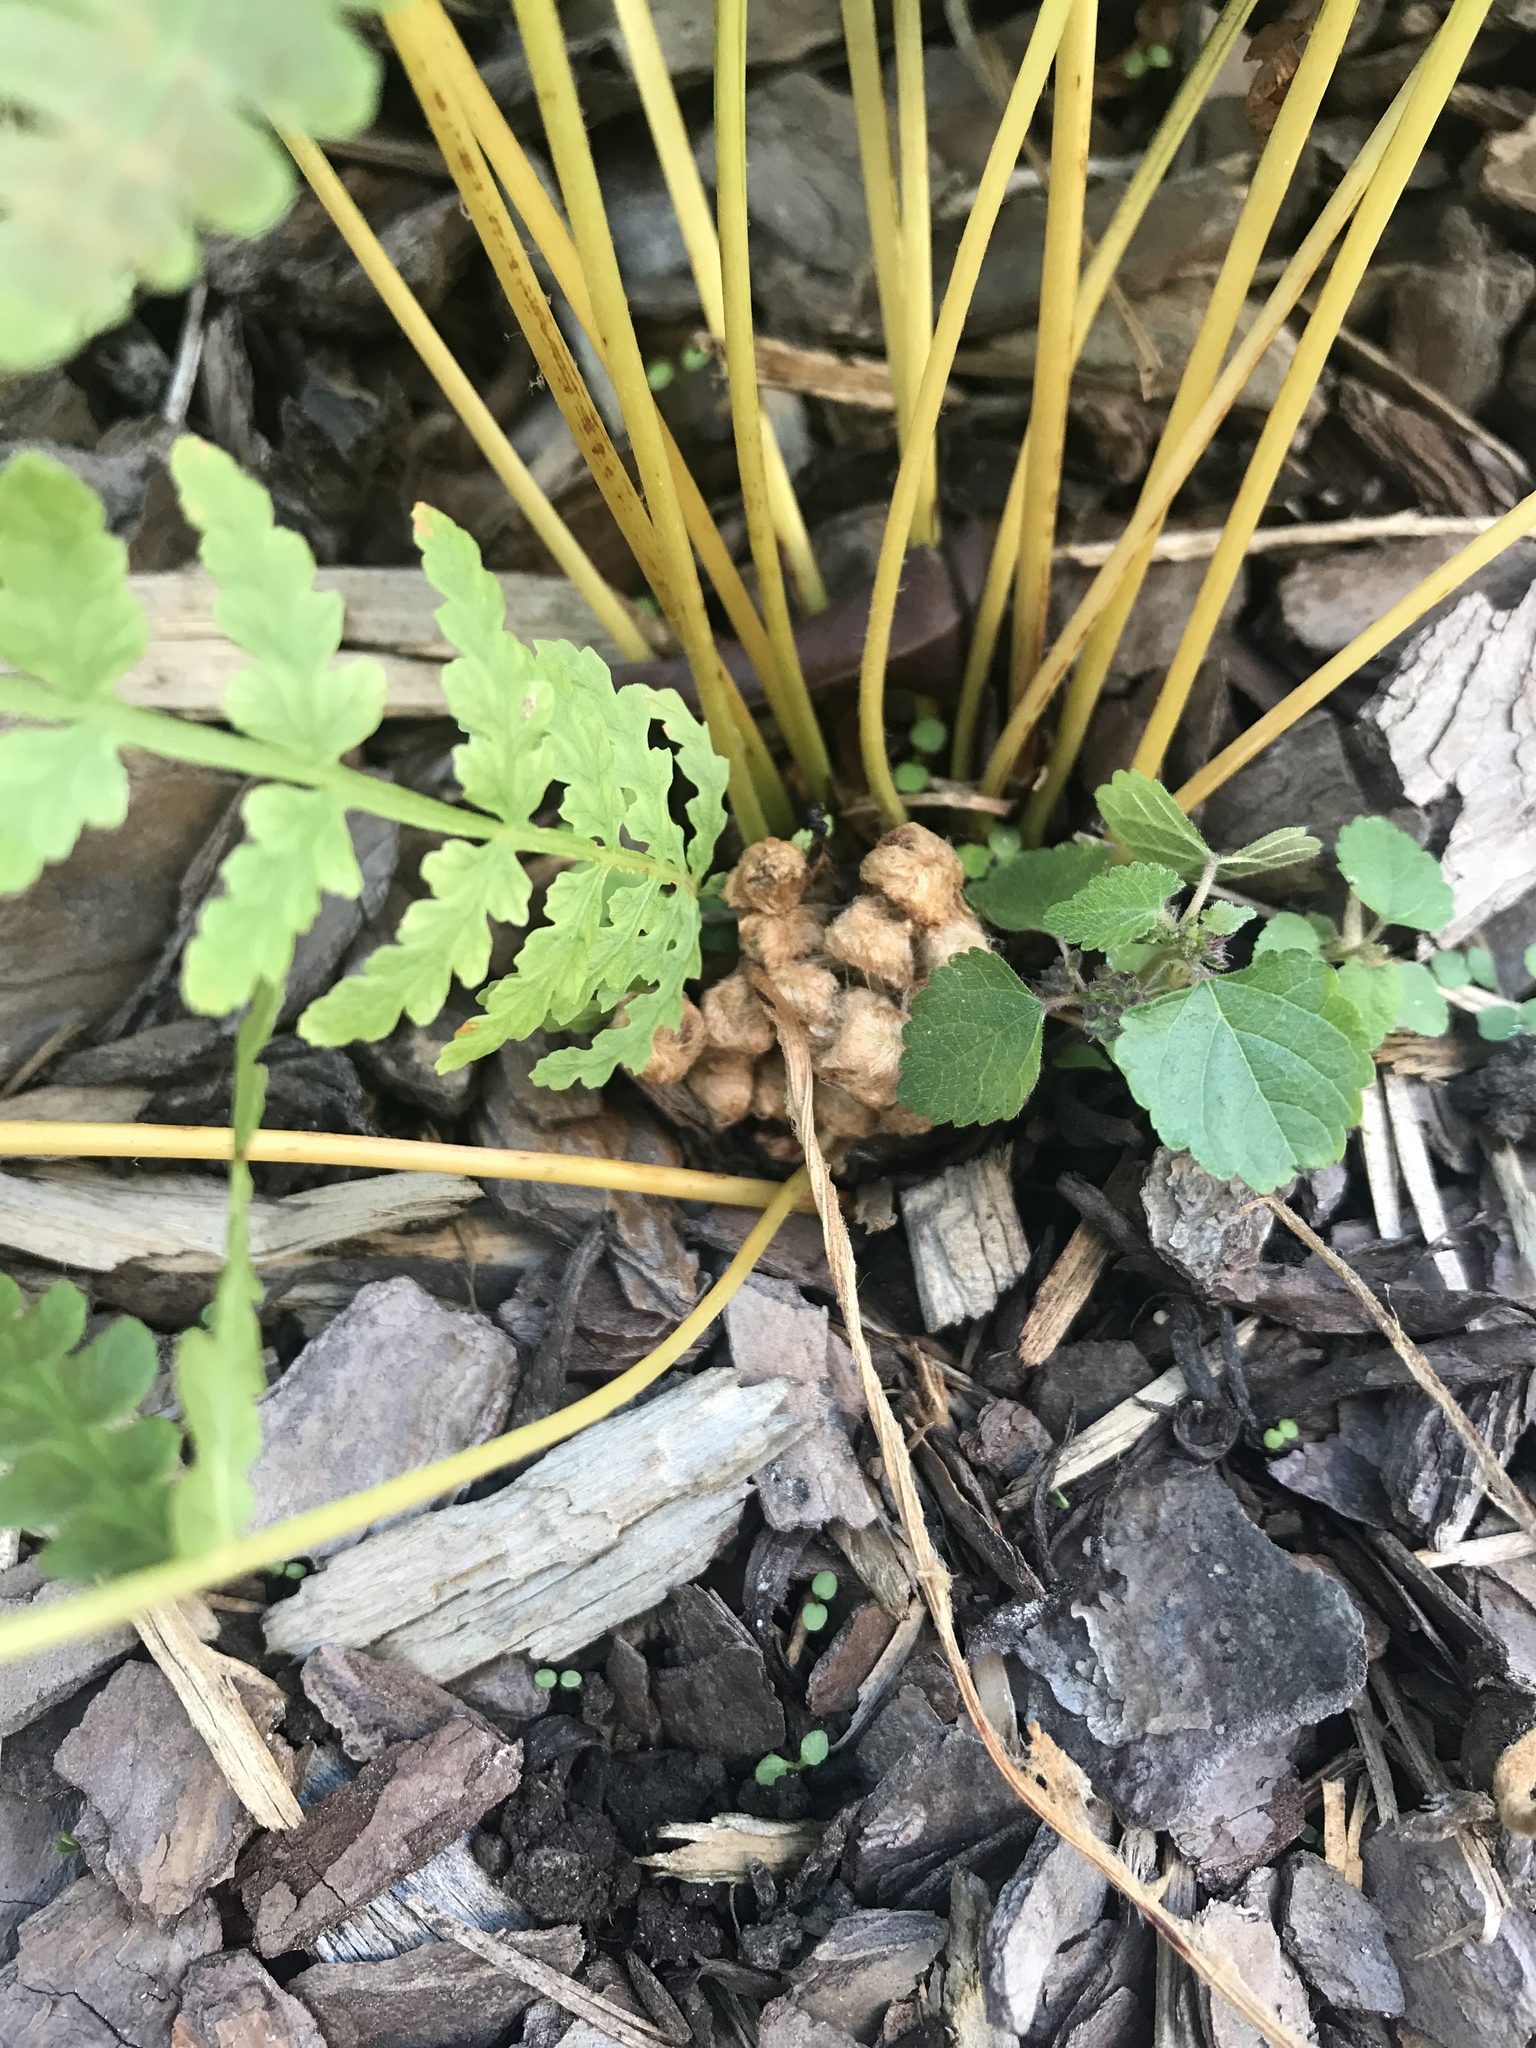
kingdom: Plantae
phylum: Tracheophyta
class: Polypodiopsida
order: Osmundales
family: Osmundaceae
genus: Osmundastrum
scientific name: Osmundastrum cinnamomeum
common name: Cinnamon fern
